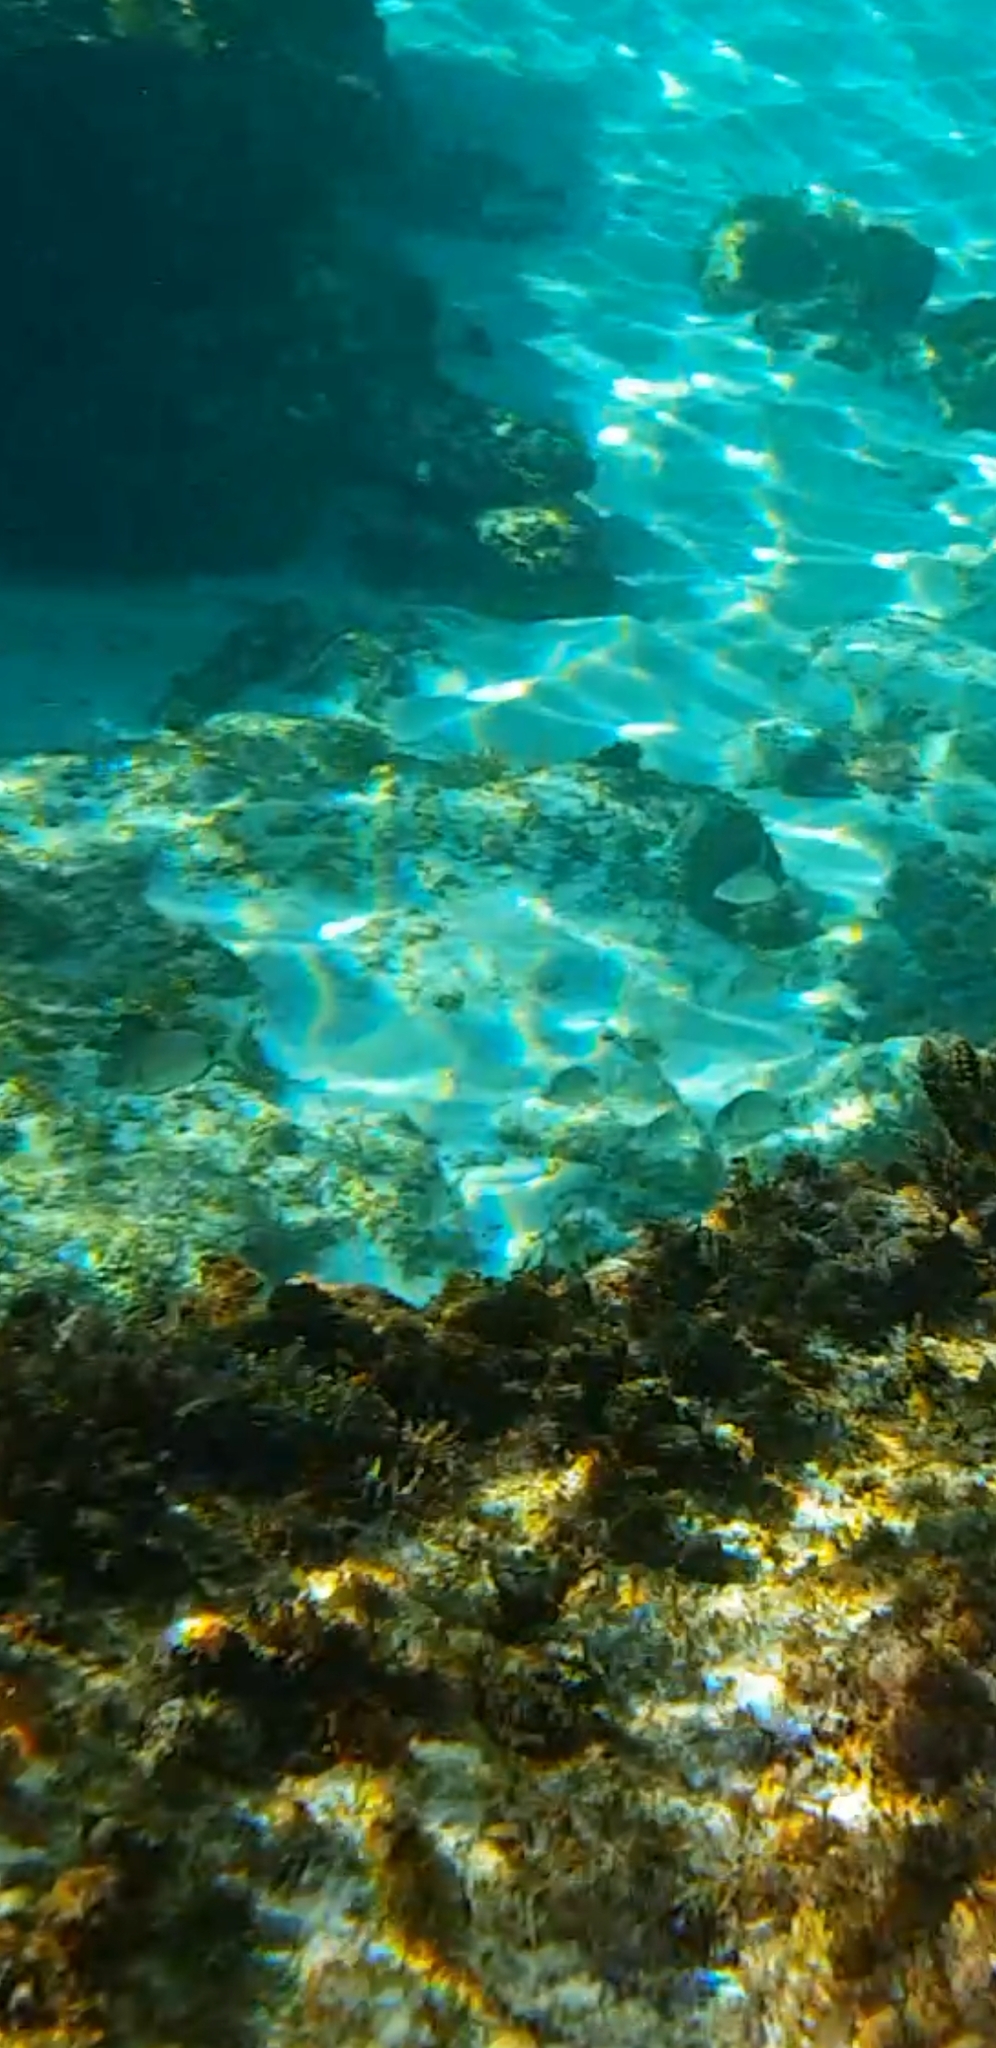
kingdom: Animalia
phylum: Chordata
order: Perciformes
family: Sparidae
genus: Diplodus
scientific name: Diplodus sargus
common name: White seabream
